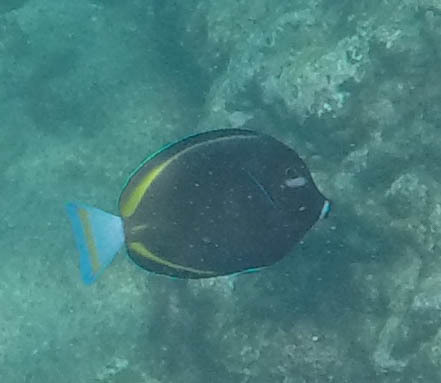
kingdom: Animalia
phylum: Chordata
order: Perciformes
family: Acanthuridae
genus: Acanthurus
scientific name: Acanthurus nigricans
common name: Whitecheek surgeonfish
